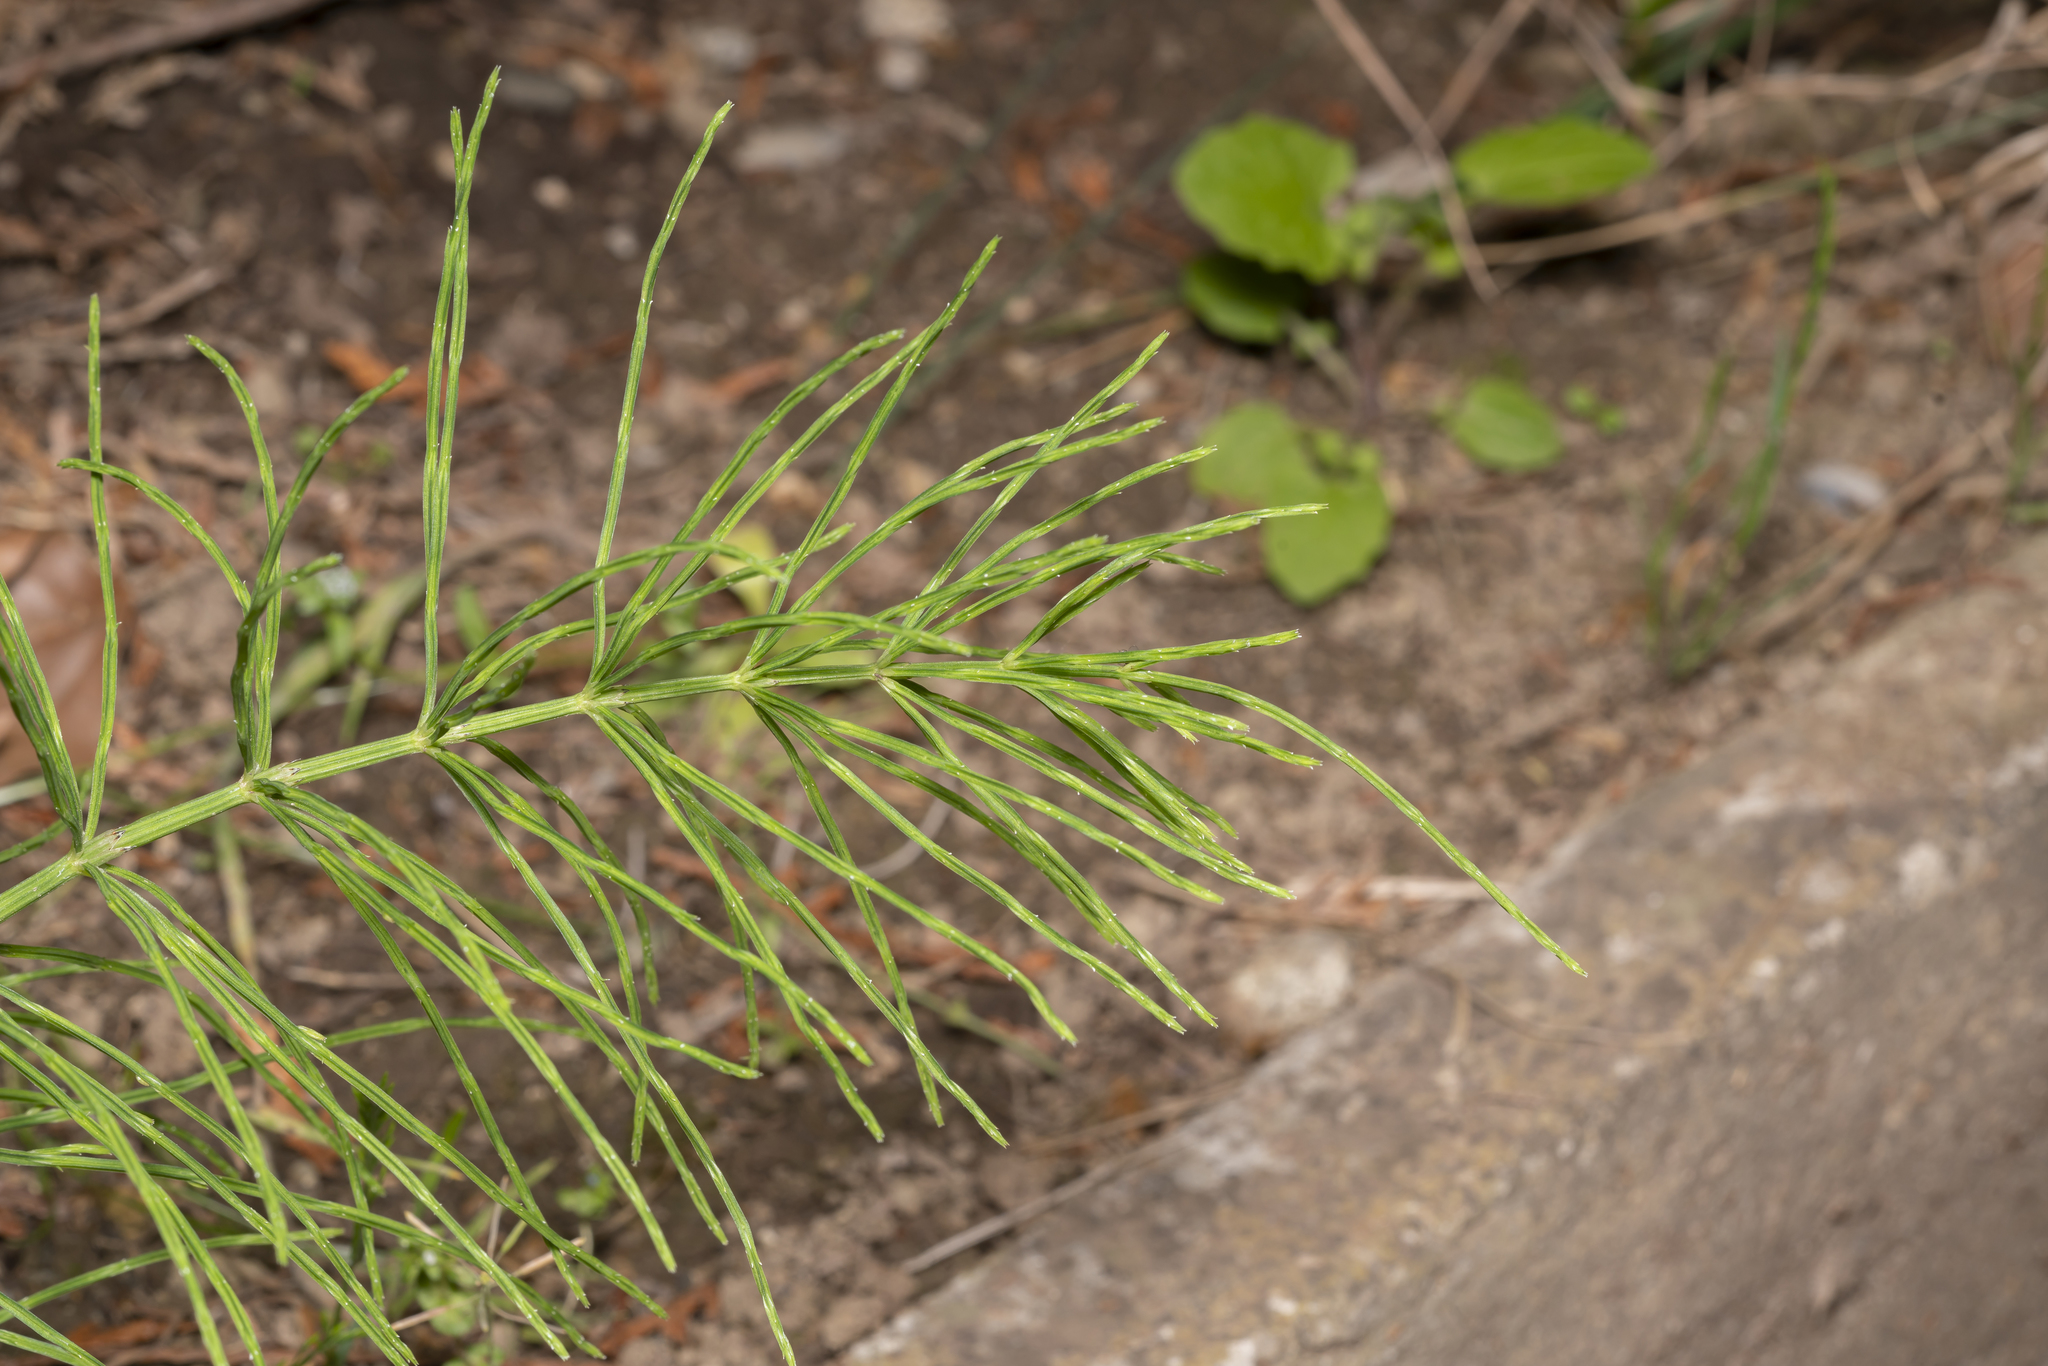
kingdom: Plantae
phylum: Tracheophyta
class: Polypodiopsida
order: Equisetales
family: Equisetaceae
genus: Equisetum
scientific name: Equisetum arvense
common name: Field horsetail
